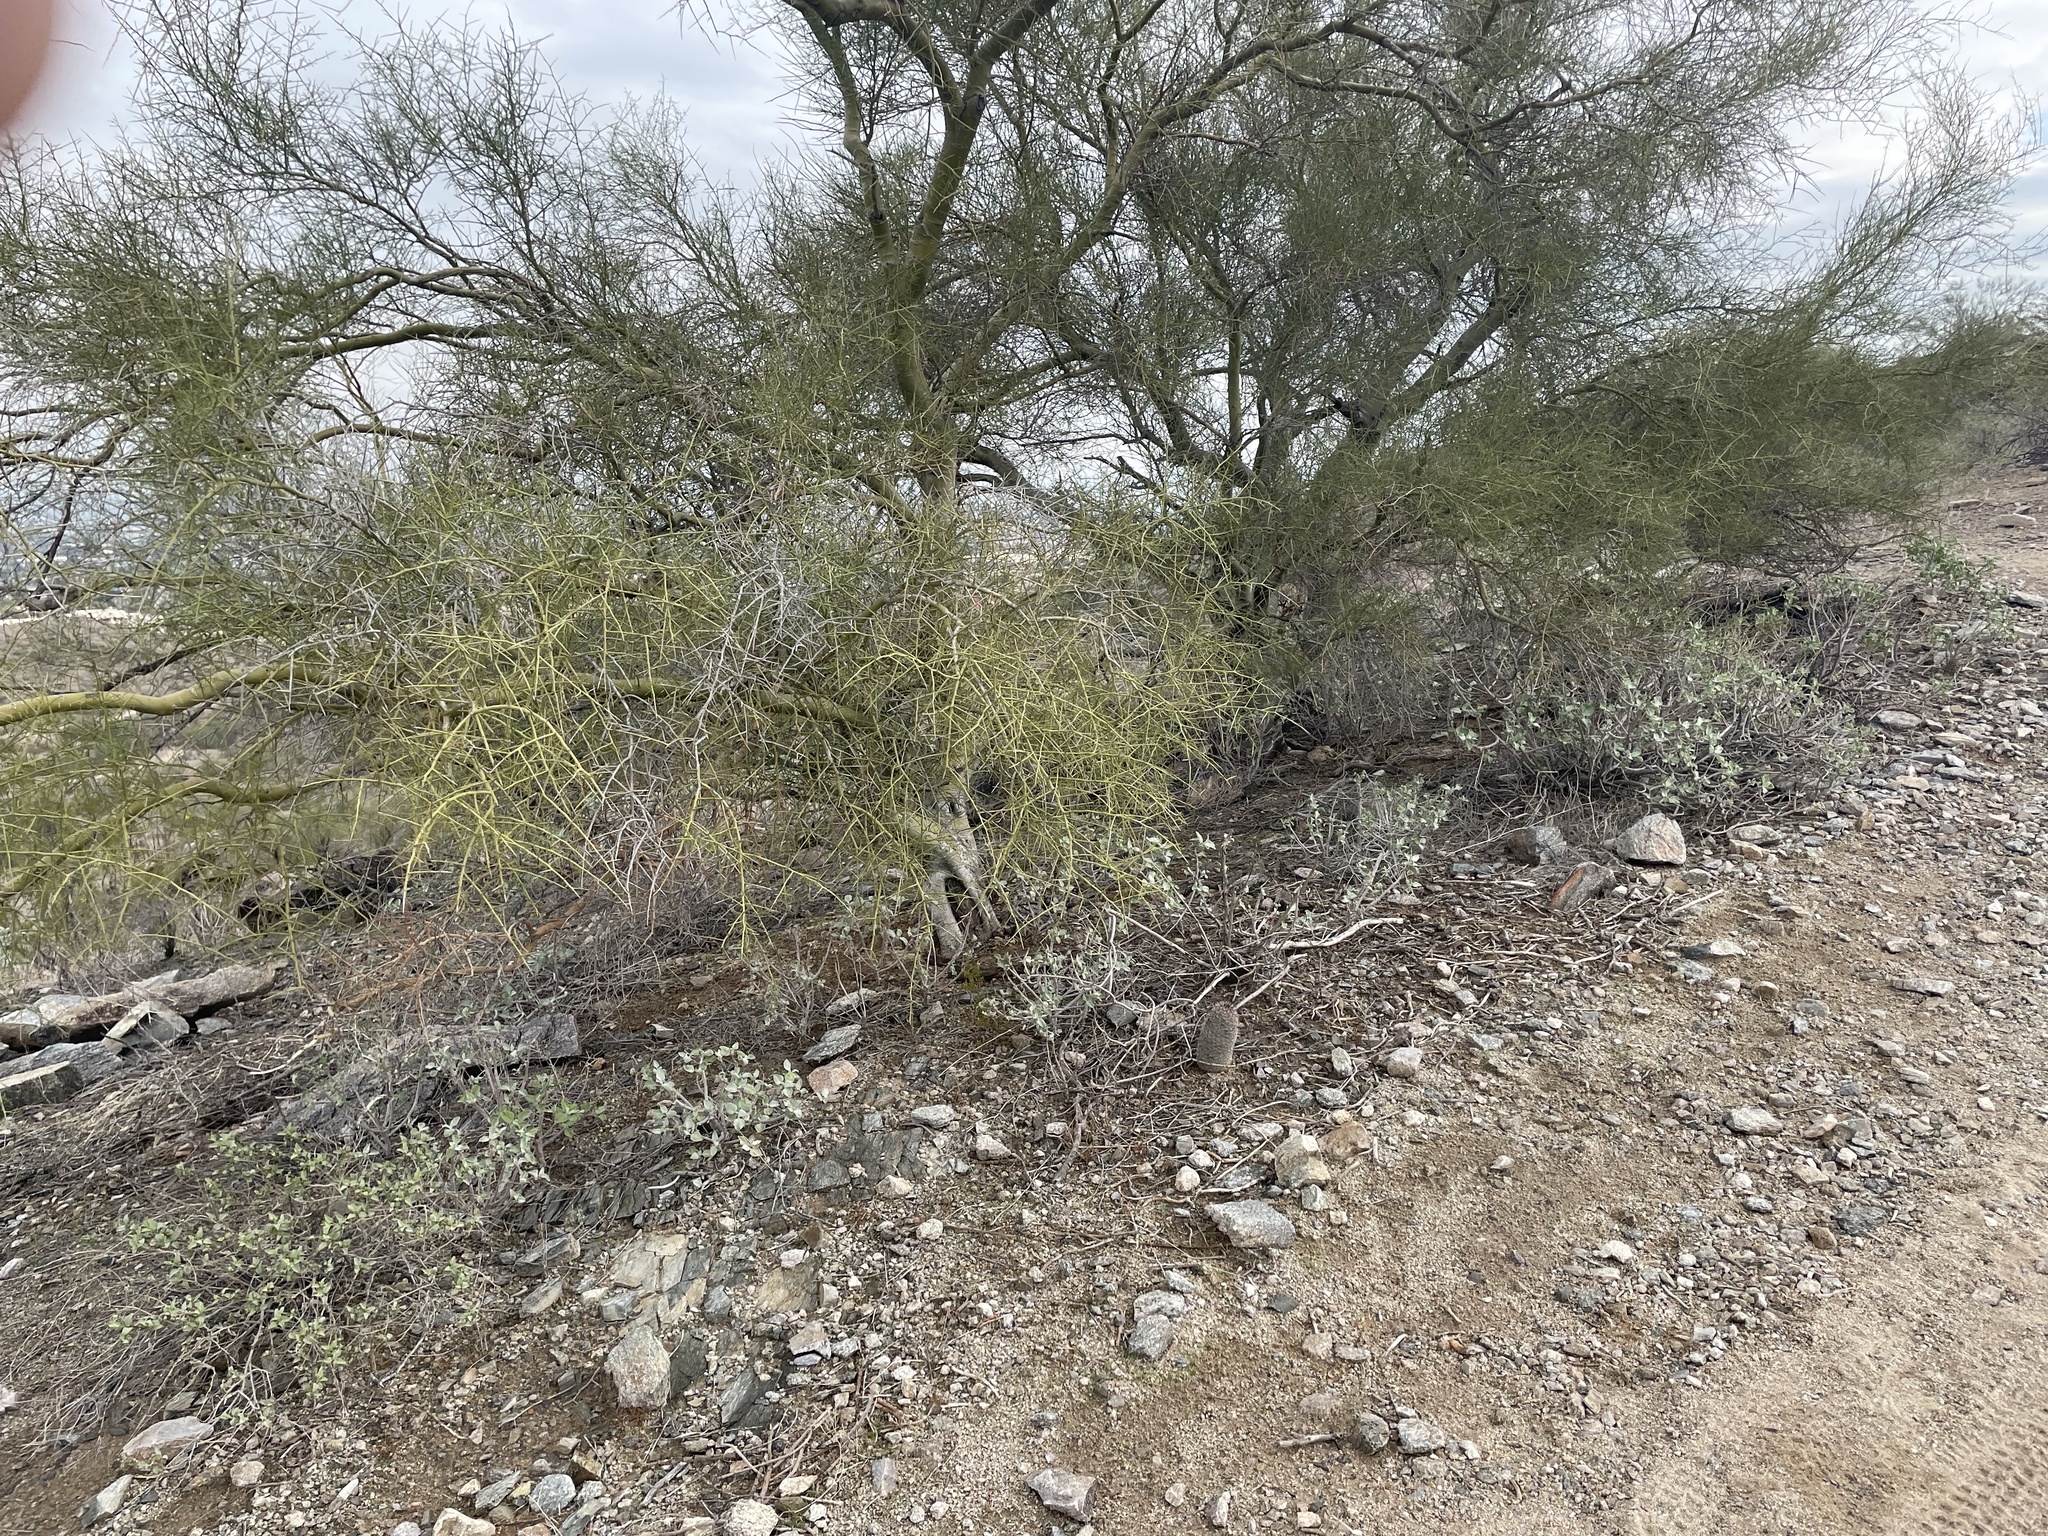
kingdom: Plantae
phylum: Tracheophyta
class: Magnoliopsida
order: Caryophyllales
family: Cactaceae
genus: Cochemiea
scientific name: Cochemiea grahamii
